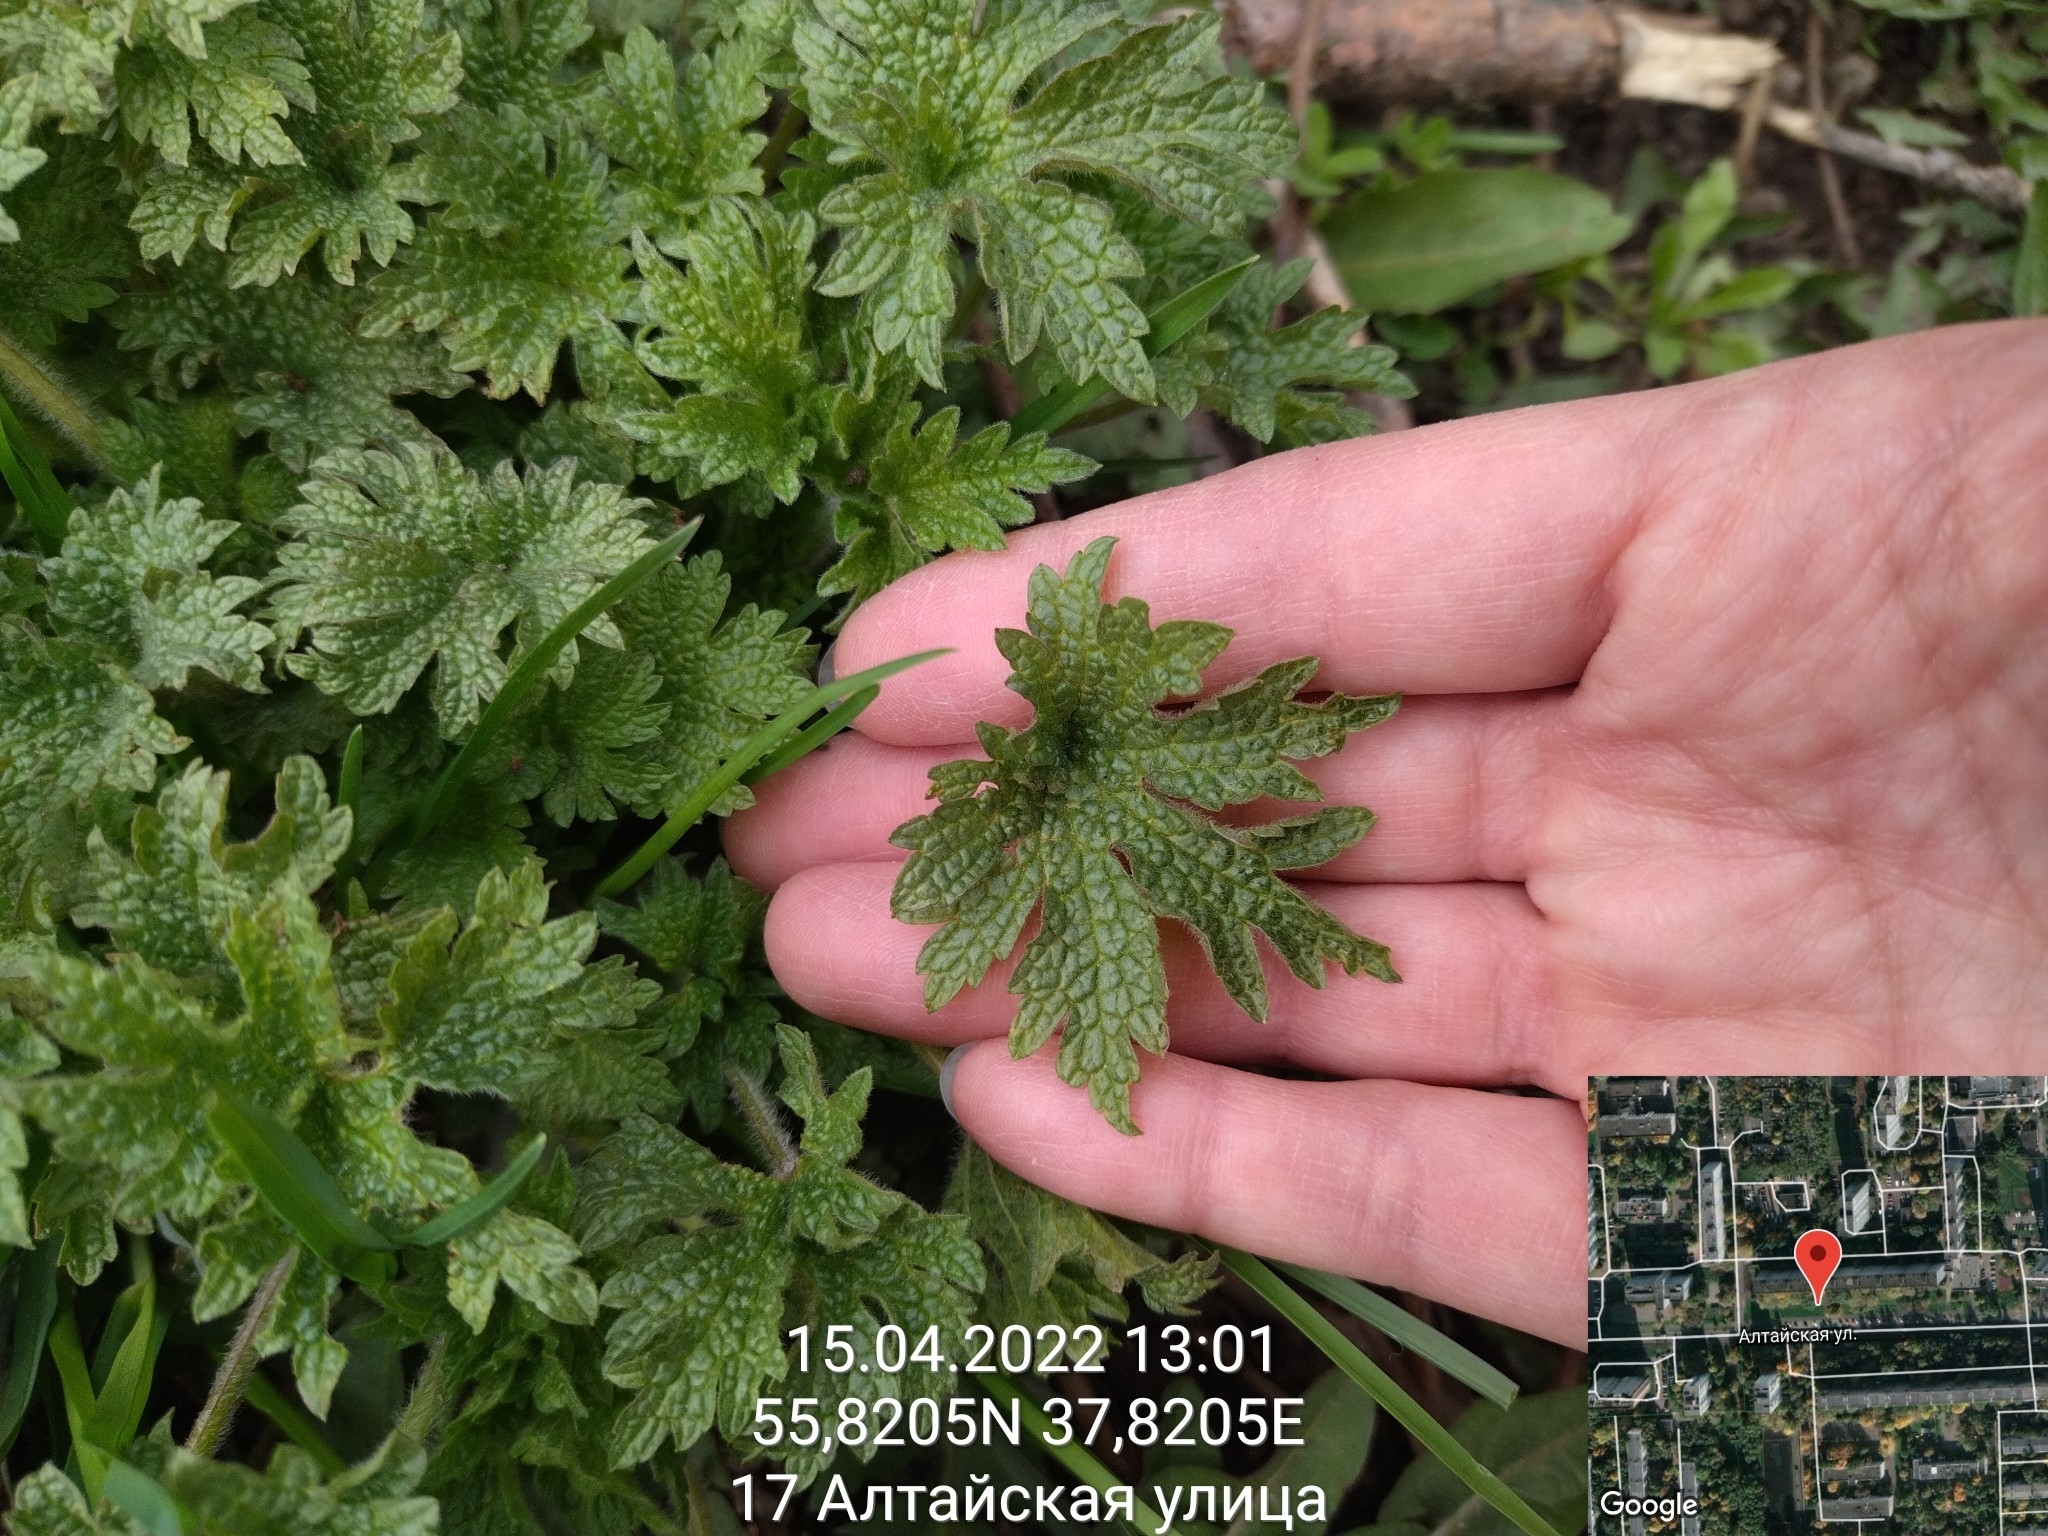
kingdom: Plantae
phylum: Tracheophyta
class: Magnoliopsida
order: Lamiales
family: Lamiaceae
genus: Leonurus
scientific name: Leonurus quinquelobatus
